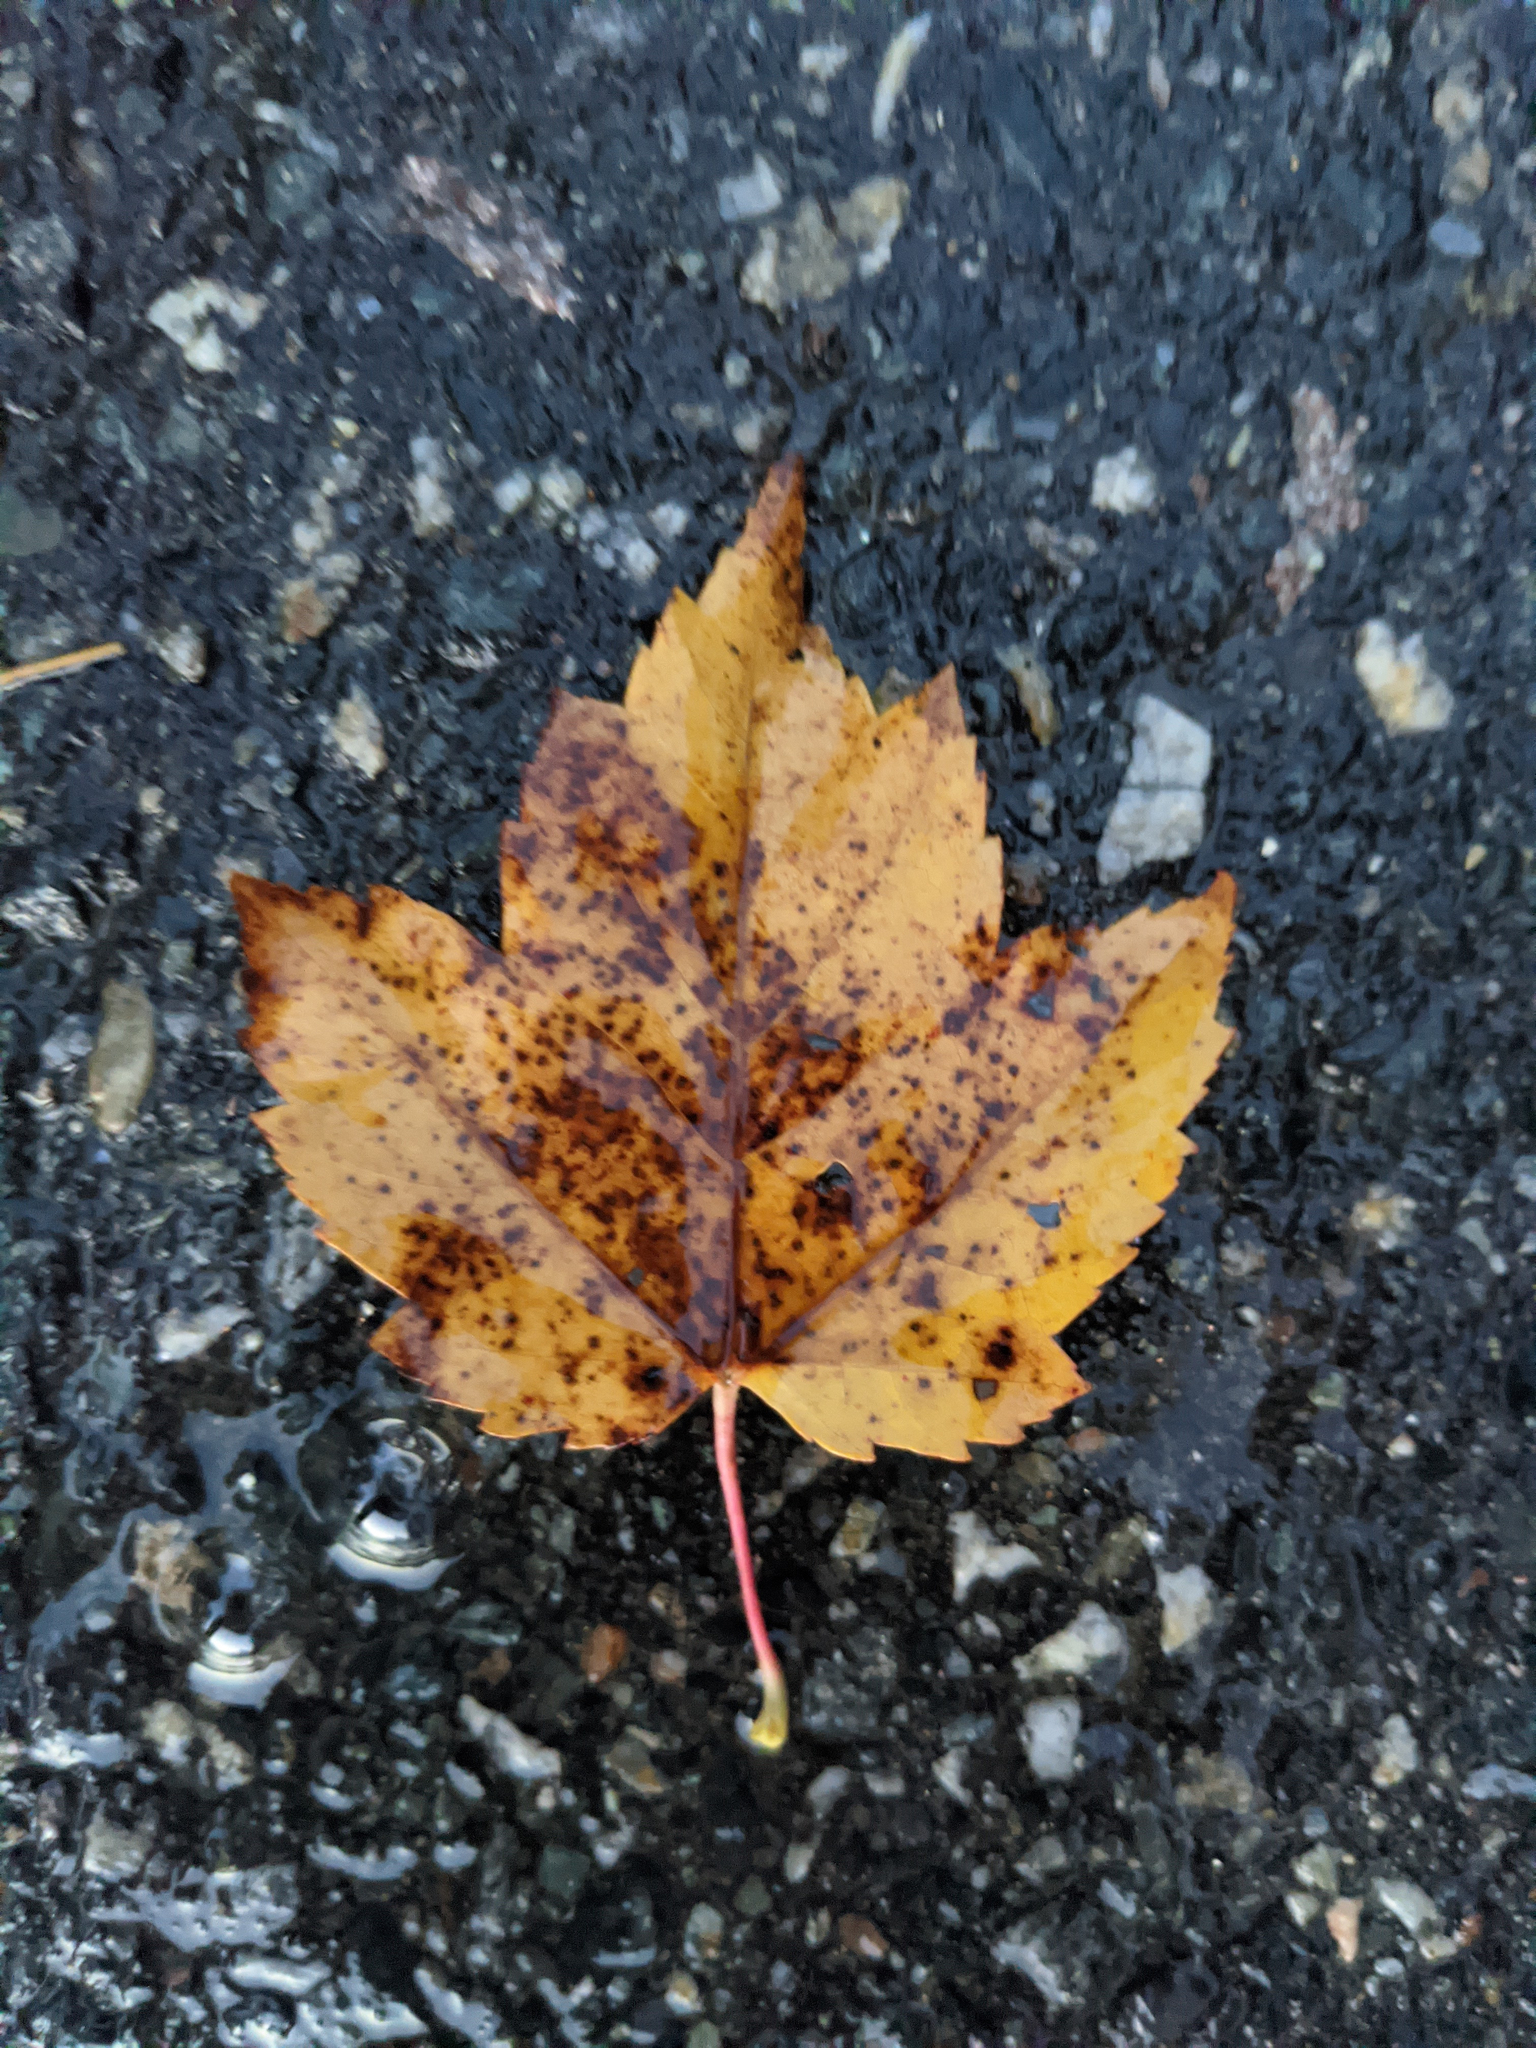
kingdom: Plantae
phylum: Tracheophyta
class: Magnoliopsida
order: Sapindales
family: Sapindaceae
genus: Acer
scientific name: Acer rubrum
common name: Red maple
